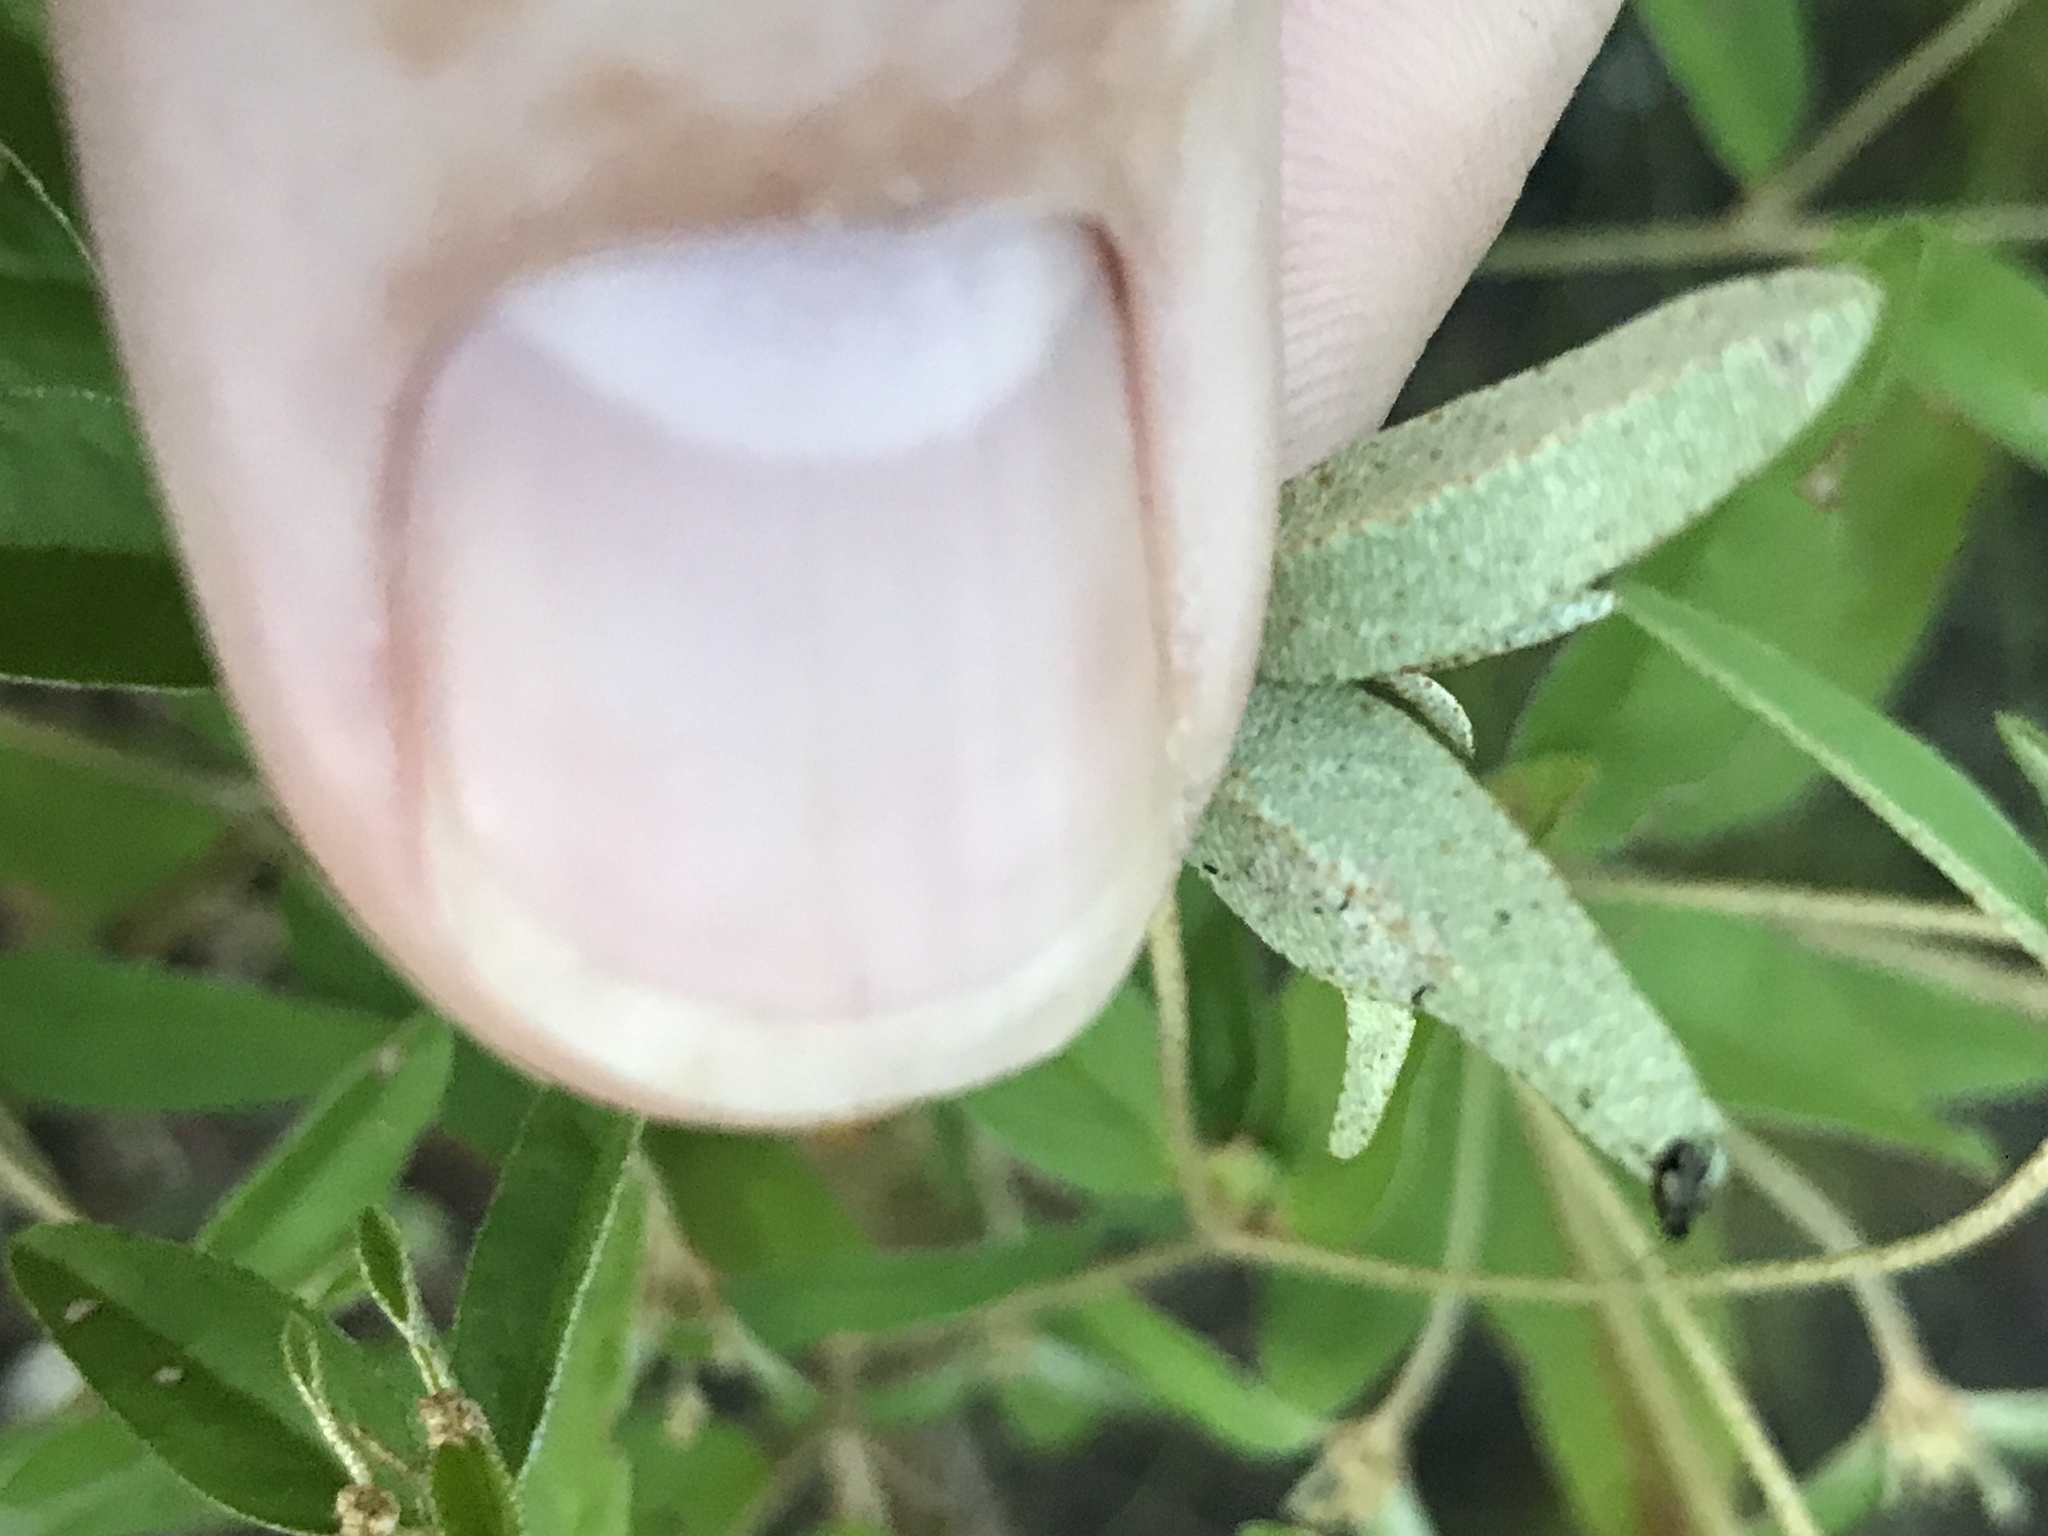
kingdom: Plantae
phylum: Tracheophyta
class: Magnoliopsida
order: Malpighiales
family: Euphorbiaceae
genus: Croton
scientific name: Croton michauxii
